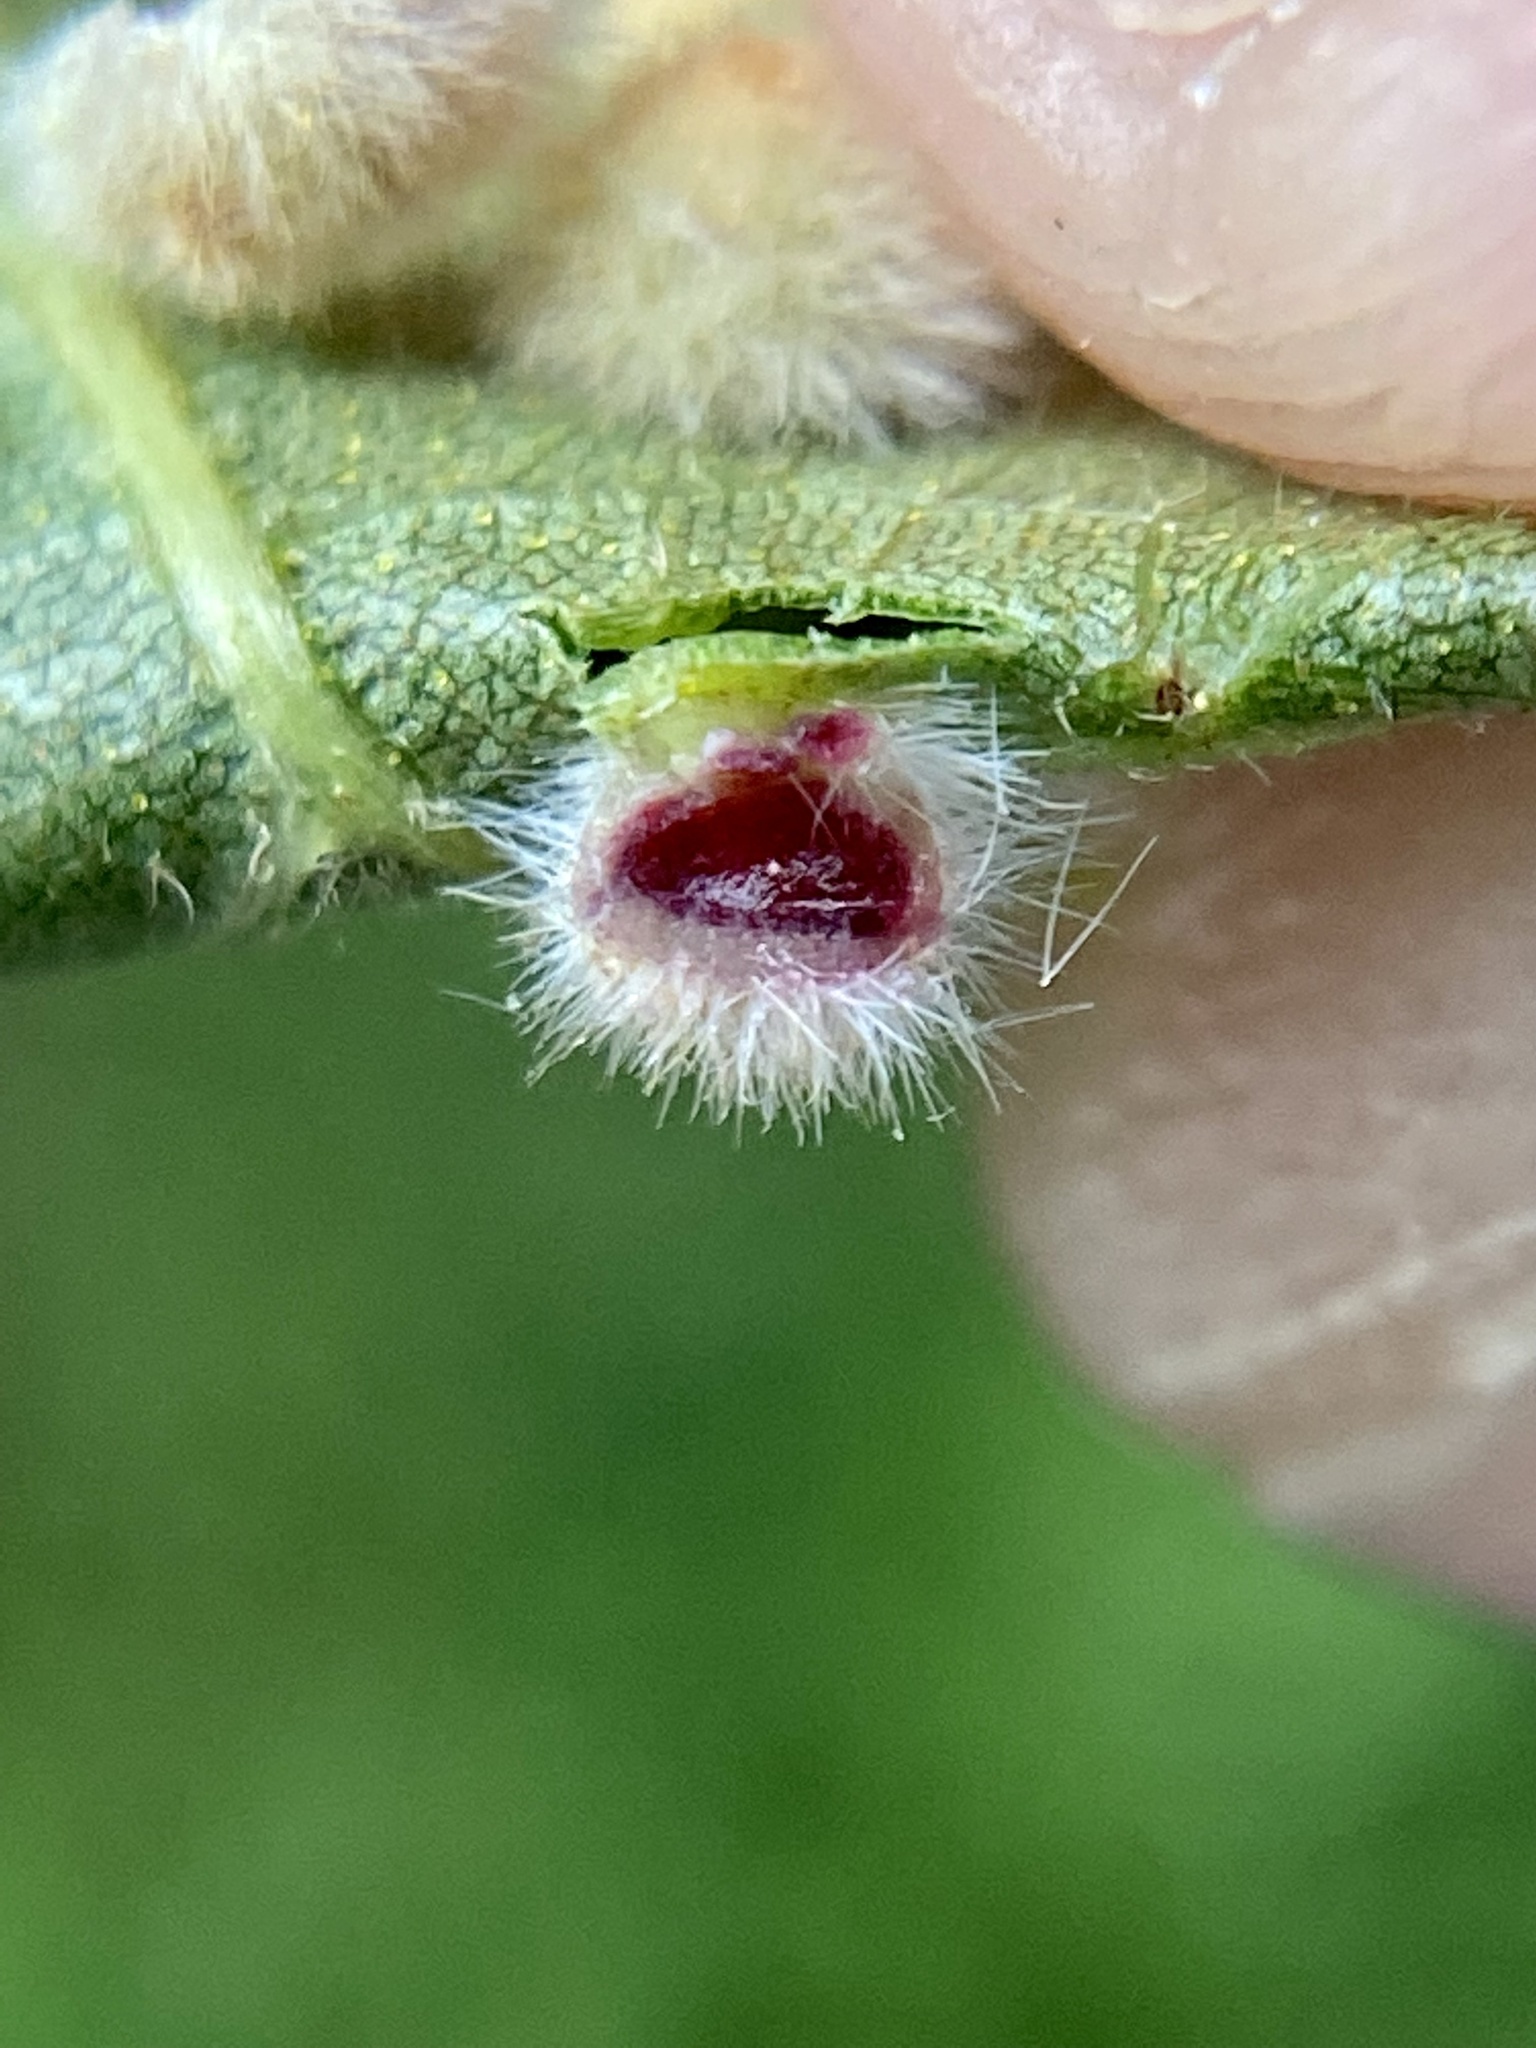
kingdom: Animalia
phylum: Arthropoda
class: Insecta
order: Diptera
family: Cecidomyiidae
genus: Caryomyia
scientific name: Caryomyia purpurea
